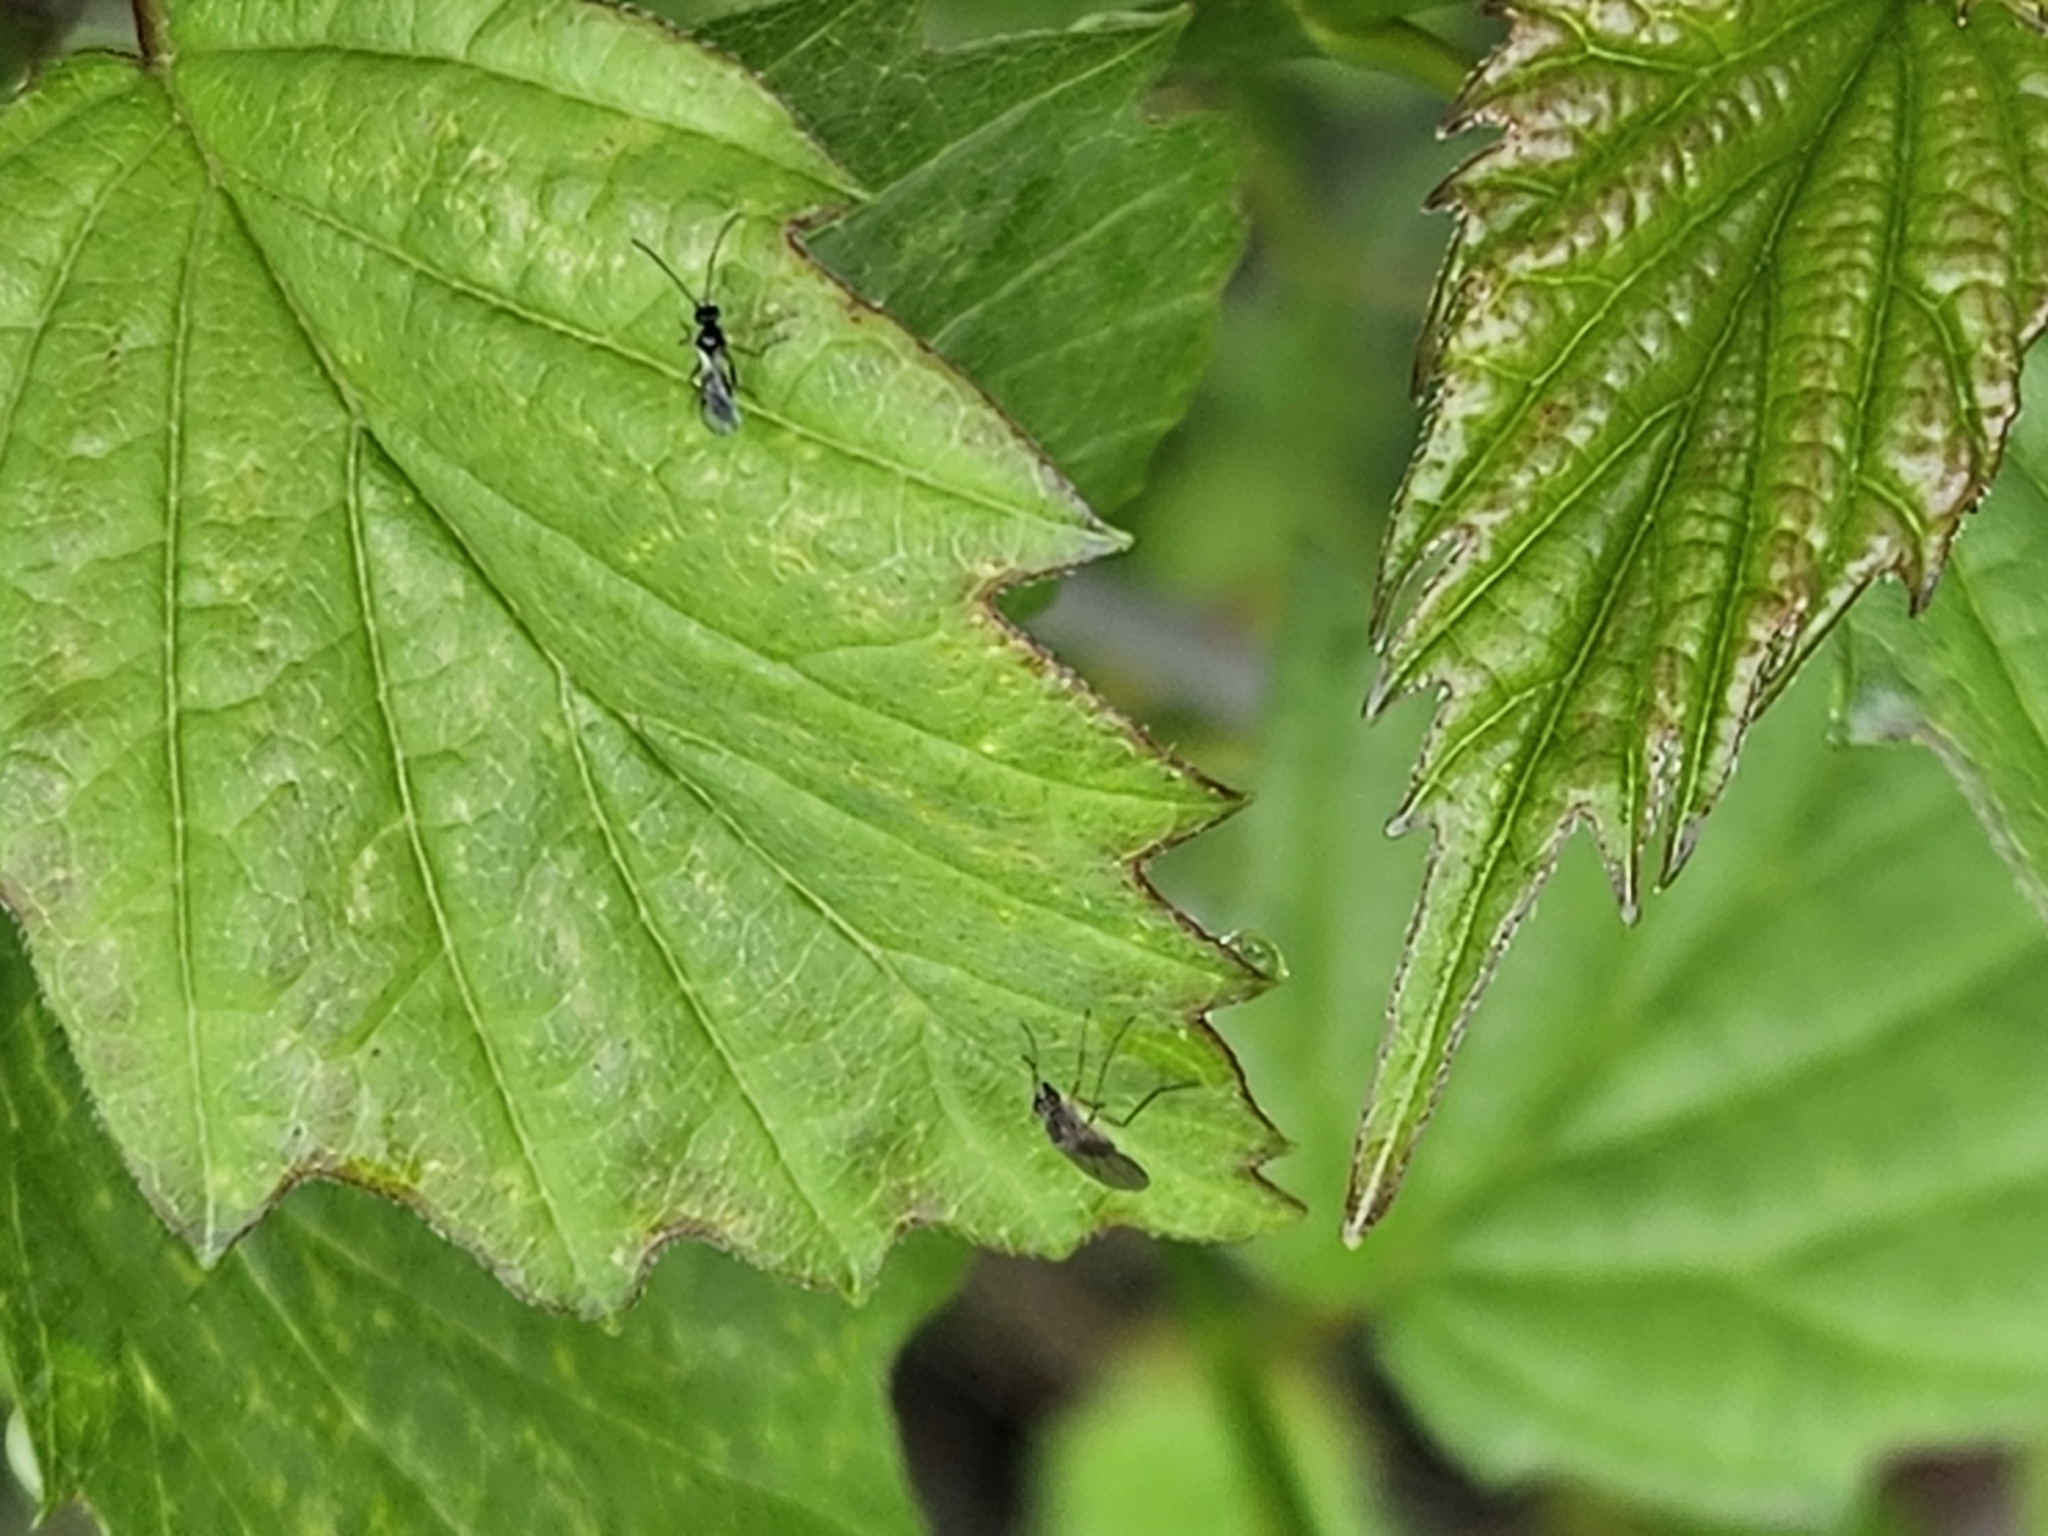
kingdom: Plantae
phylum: Tracheophyta
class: Magnoliopsida
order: Dipsacales
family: Viburnaceae
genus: Viburnum
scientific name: Viburnum recognitum
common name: Northern arrow-wood
